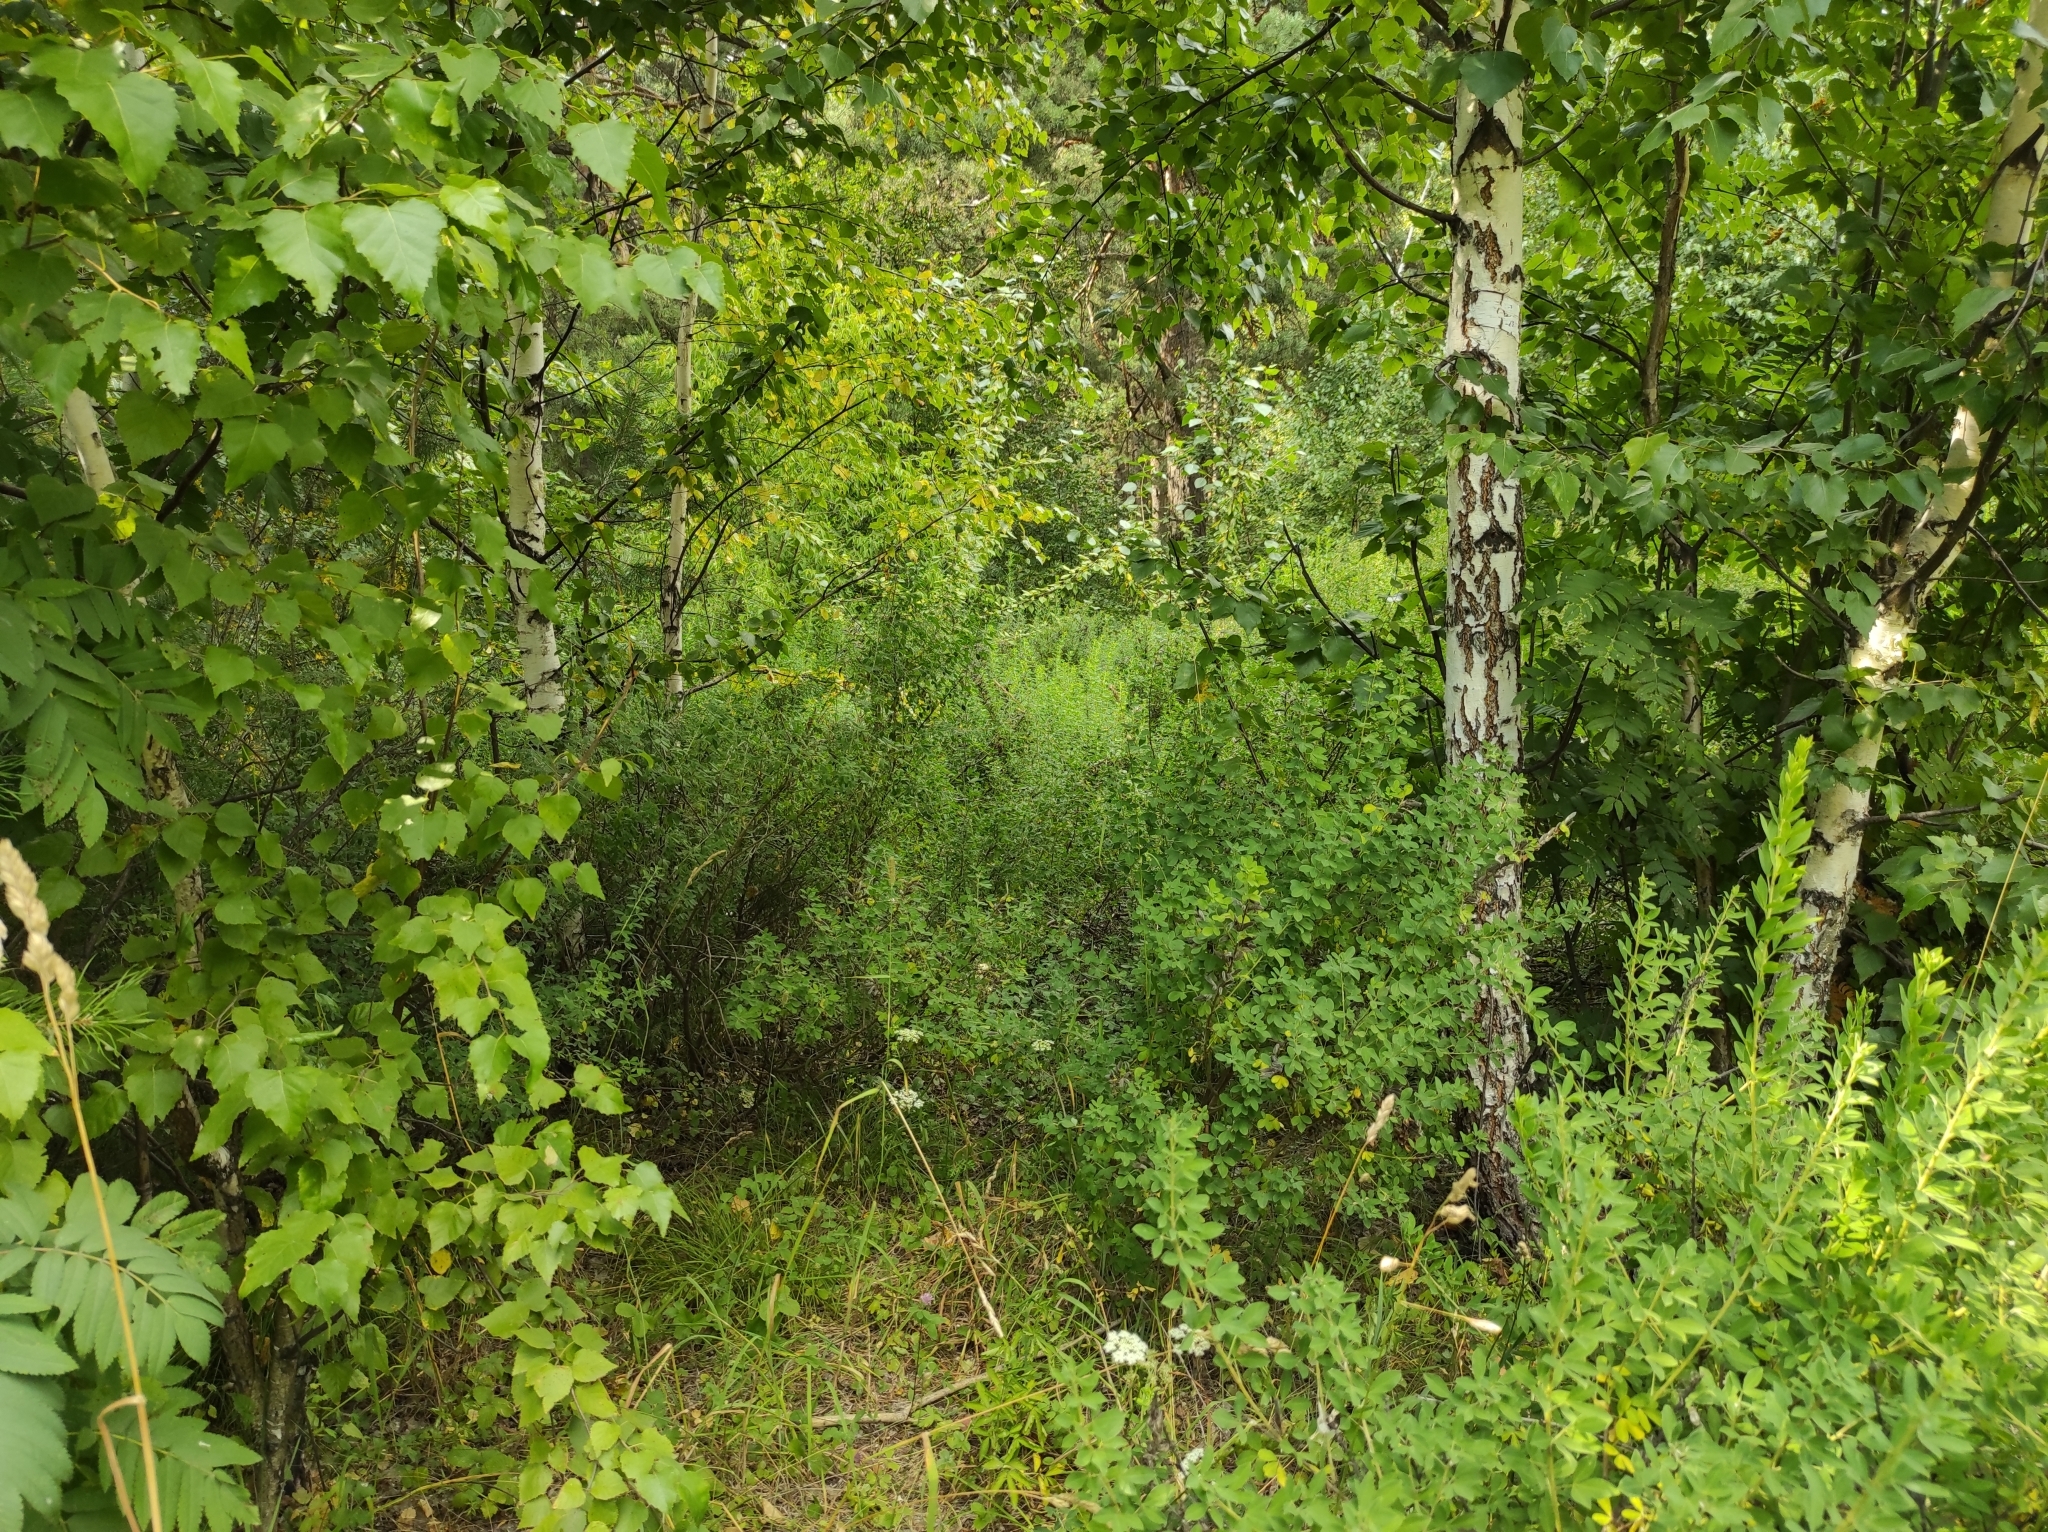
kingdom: Plantae
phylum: Tracheophyta
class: Magnoliopsida
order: Fagales
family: Betulaceae
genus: Betula
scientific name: Betula pendula
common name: Silver birch
